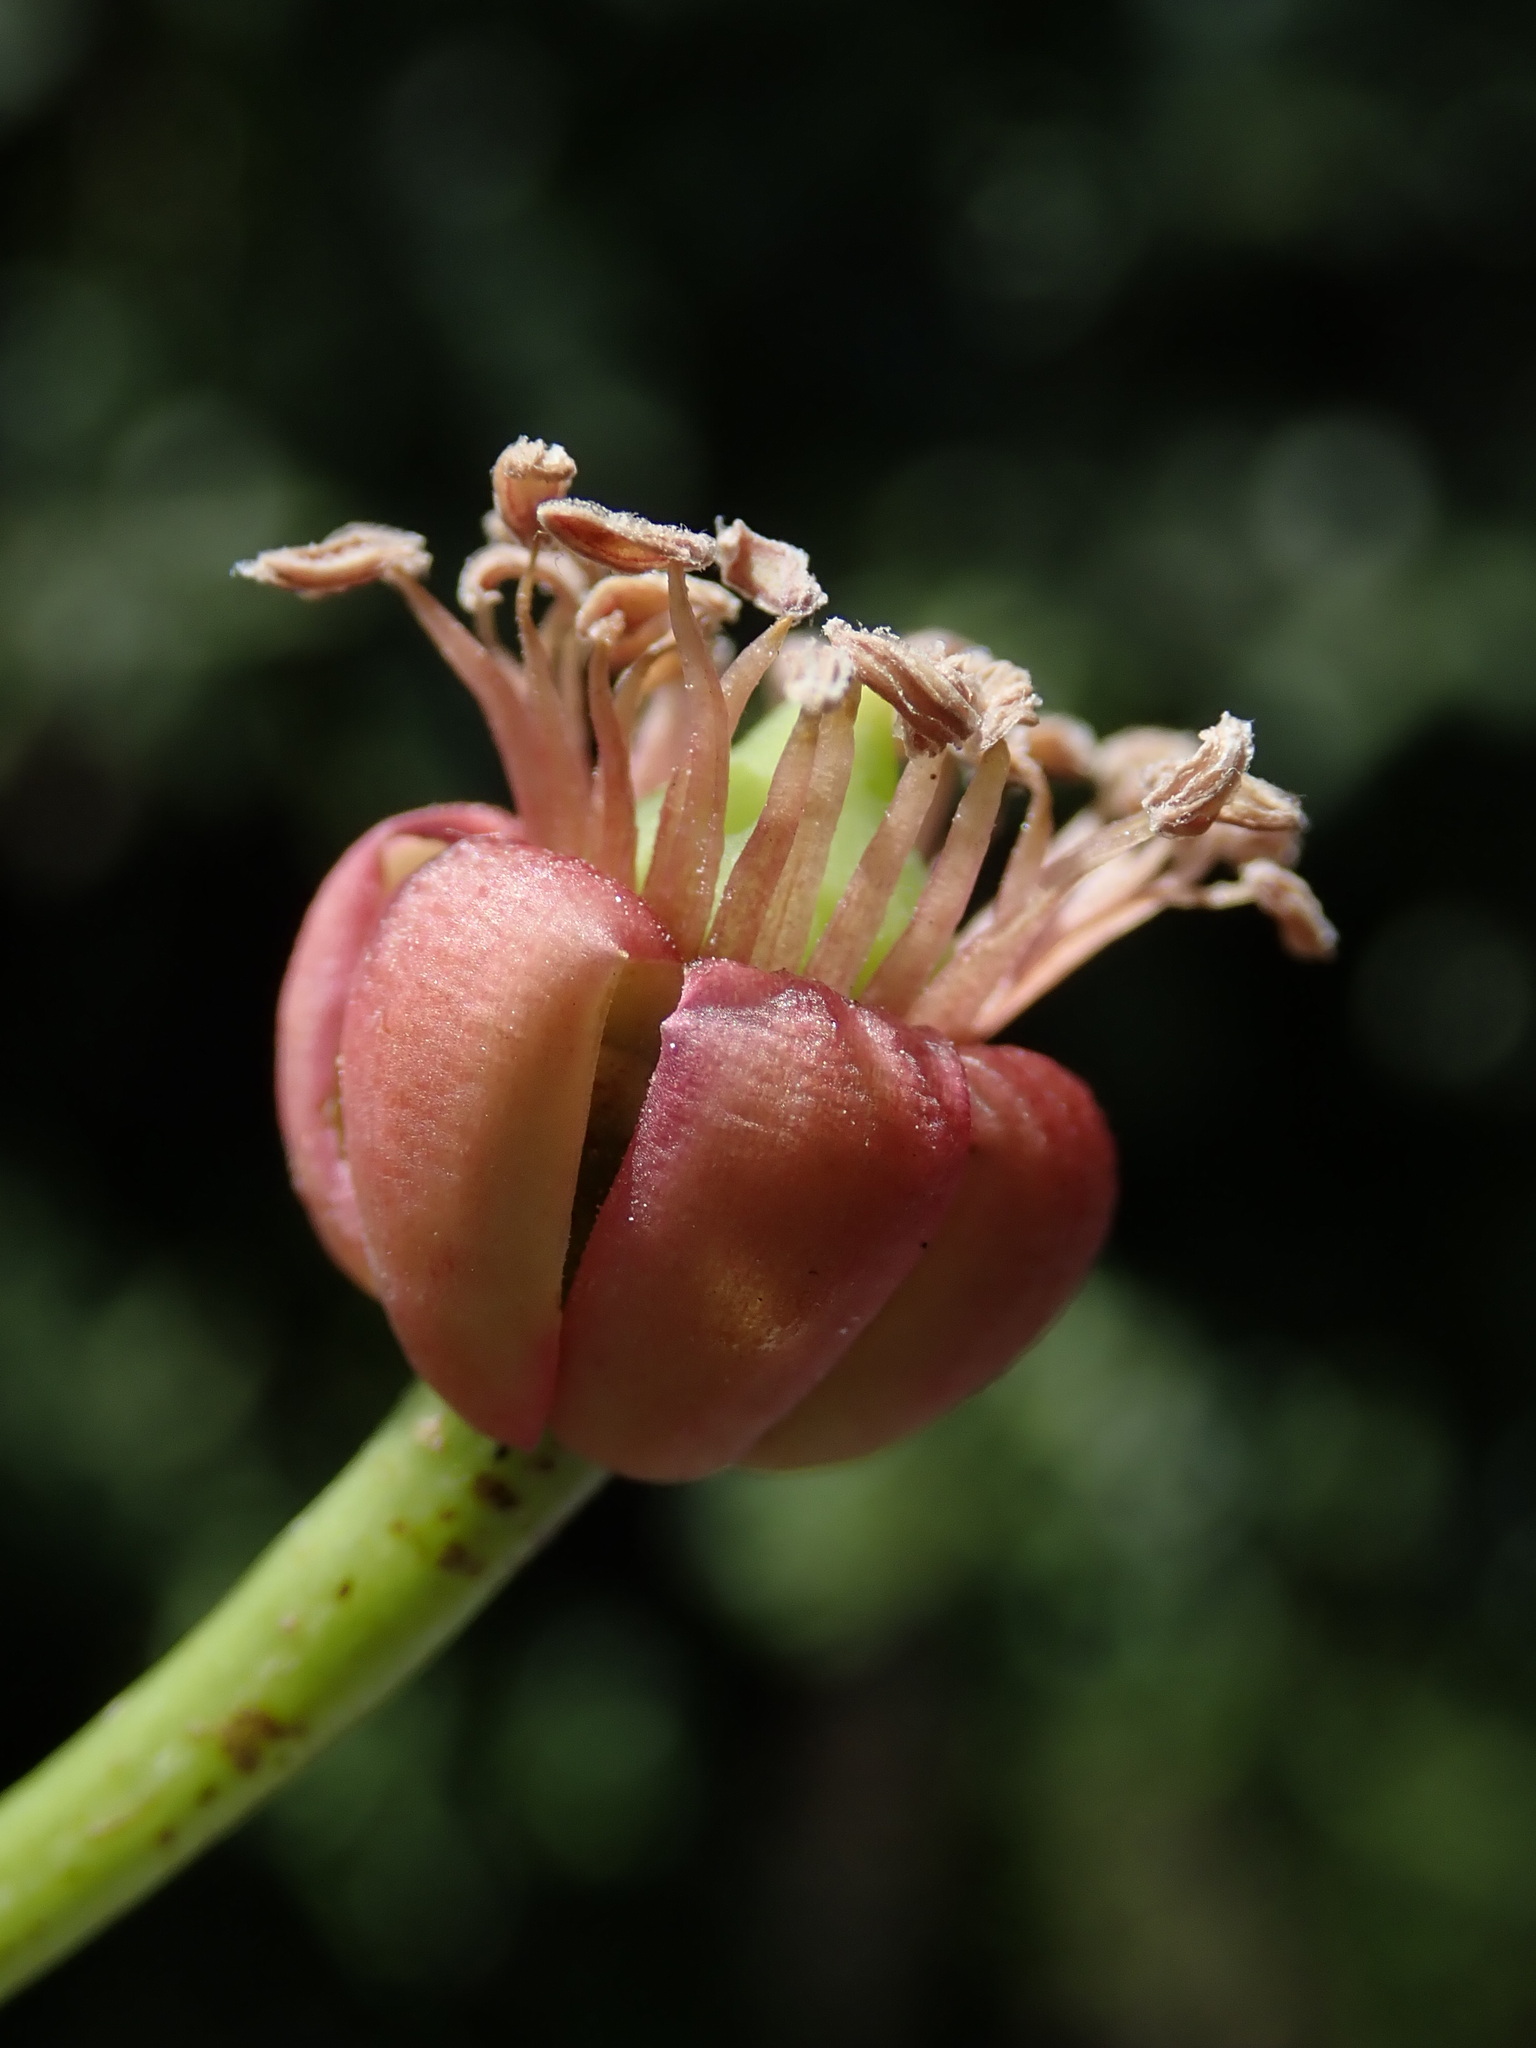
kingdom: Plantae
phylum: Tracheophyta
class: Magnoliopsida
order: Ericales
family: Marcgraviaceae
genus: Marcgraviastrum
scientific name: Marcgraviastrum mixtum
